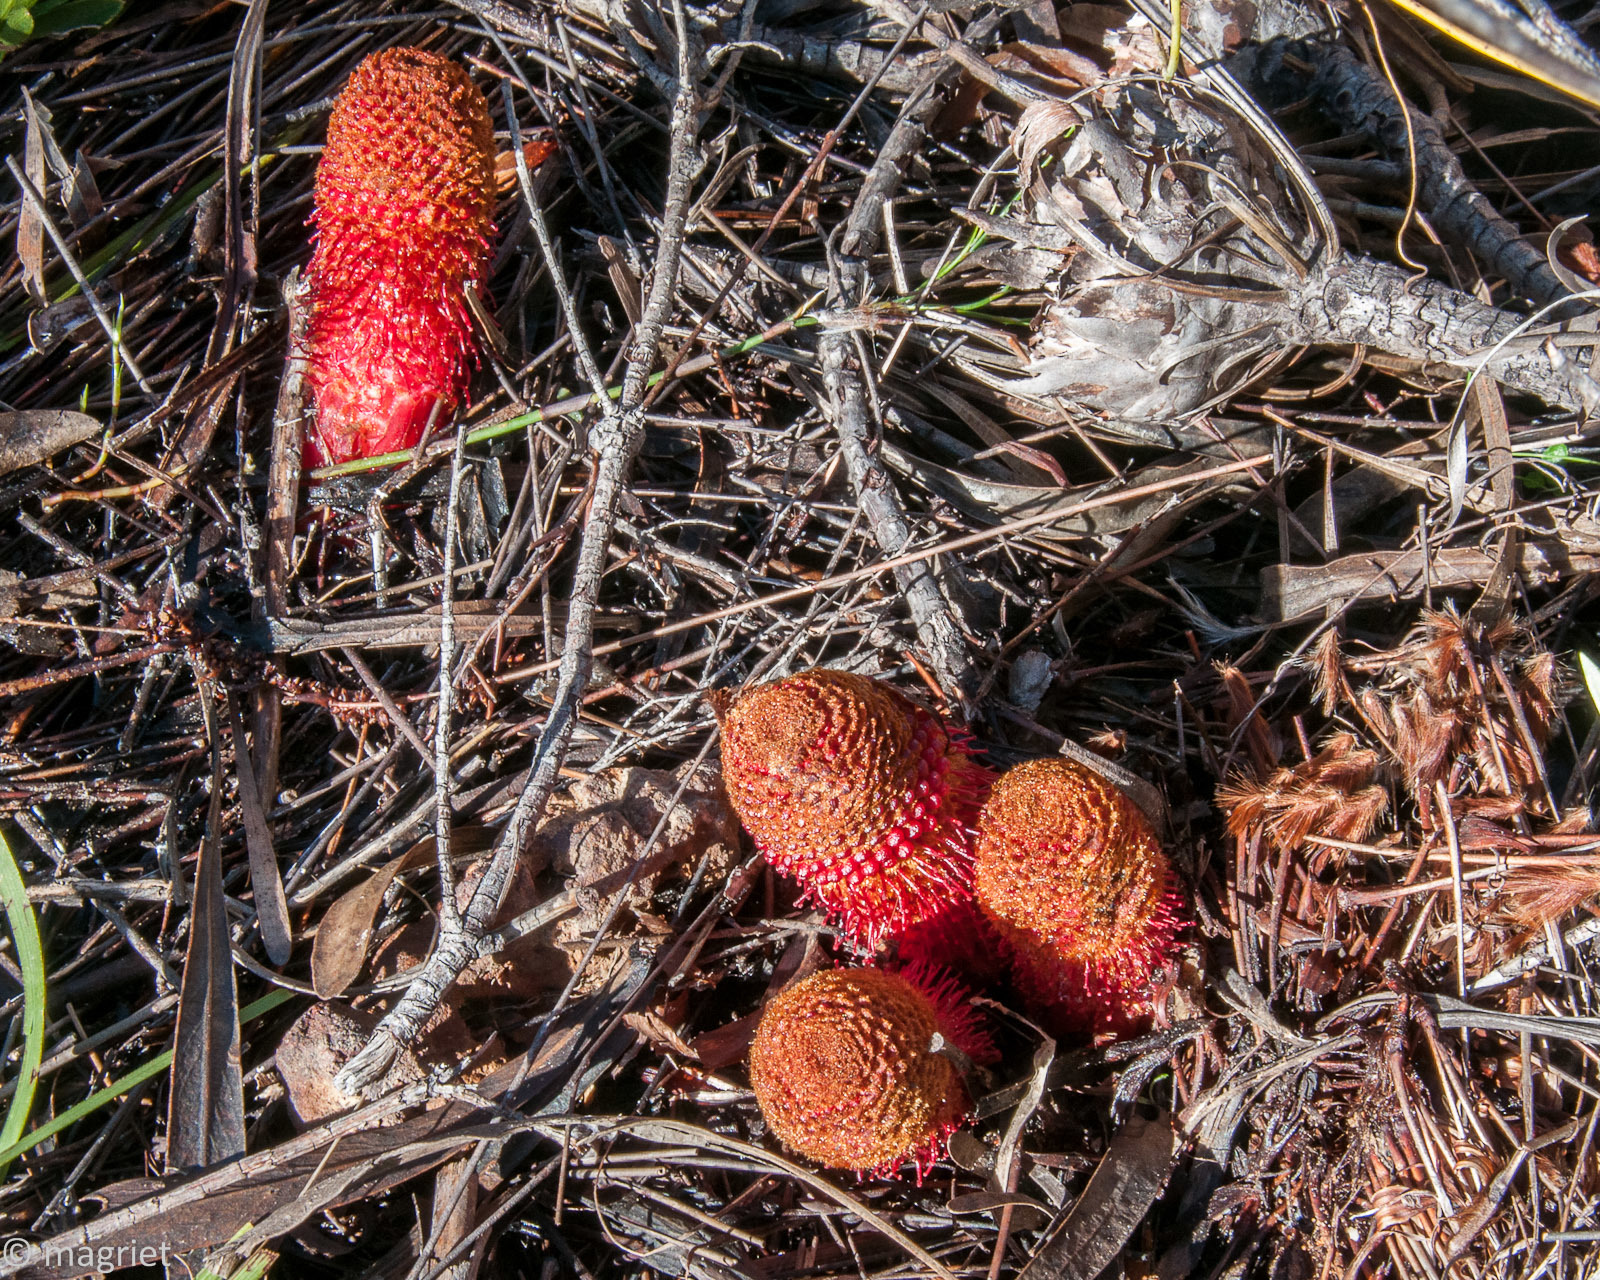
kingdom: Plantae
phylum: Tracheophyta
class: Magnoliopsida
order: Santalales
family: Mystropetalaceae
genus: Mystropetalon
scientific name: Mystropetalon thomii
